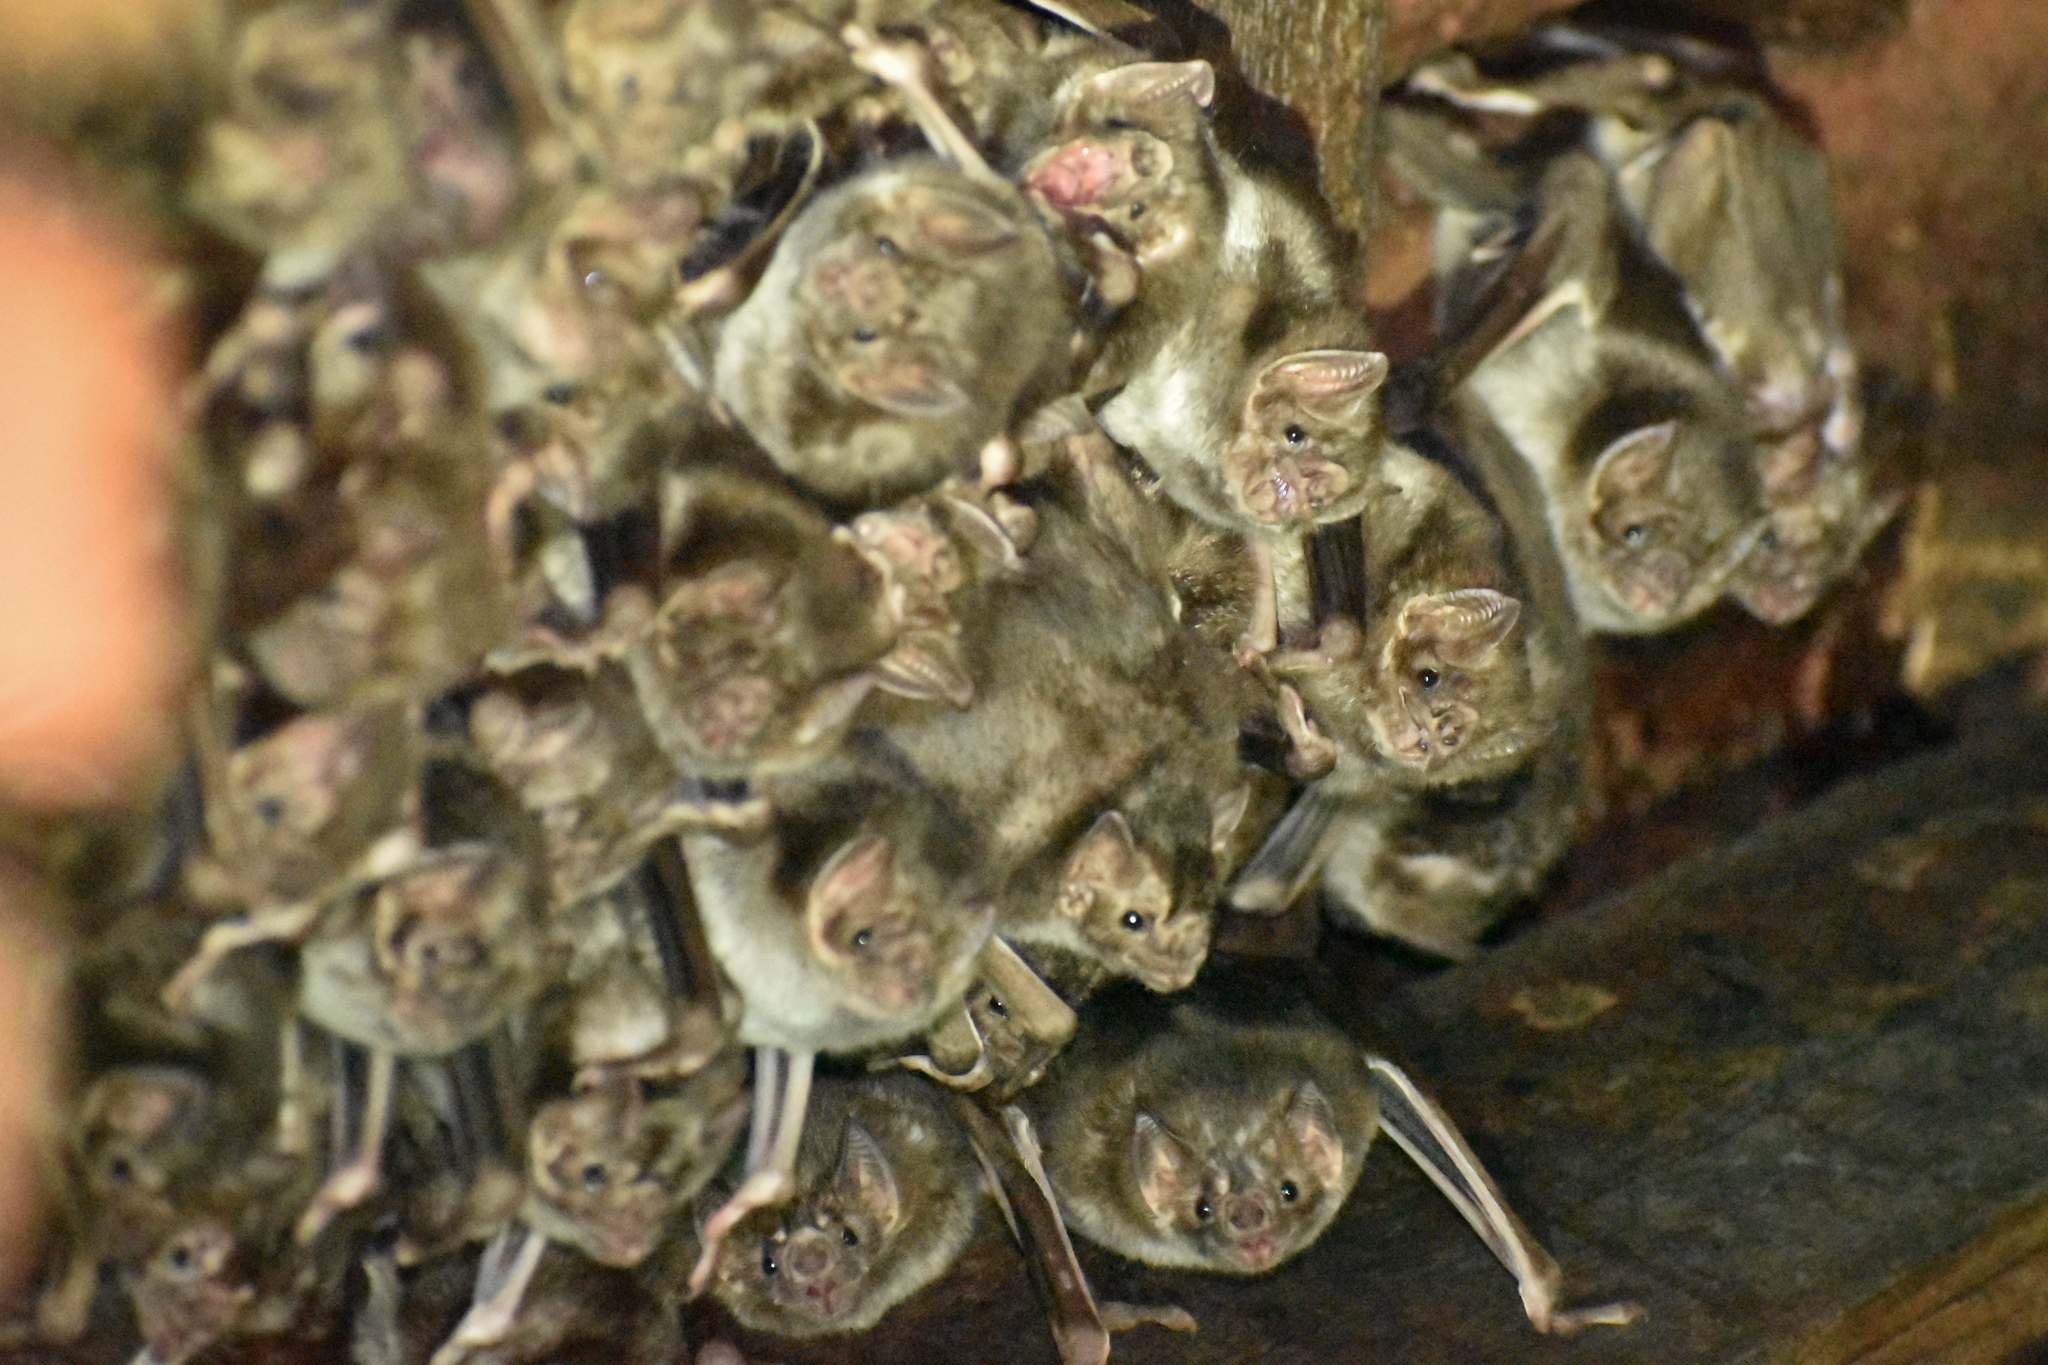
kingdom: Animalia
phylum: Chordata
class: Mammalia
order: Chiroptera
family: Phyllostomidae
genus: Desmodus
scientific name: Desmodus rotundus
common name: Common vampire bat
